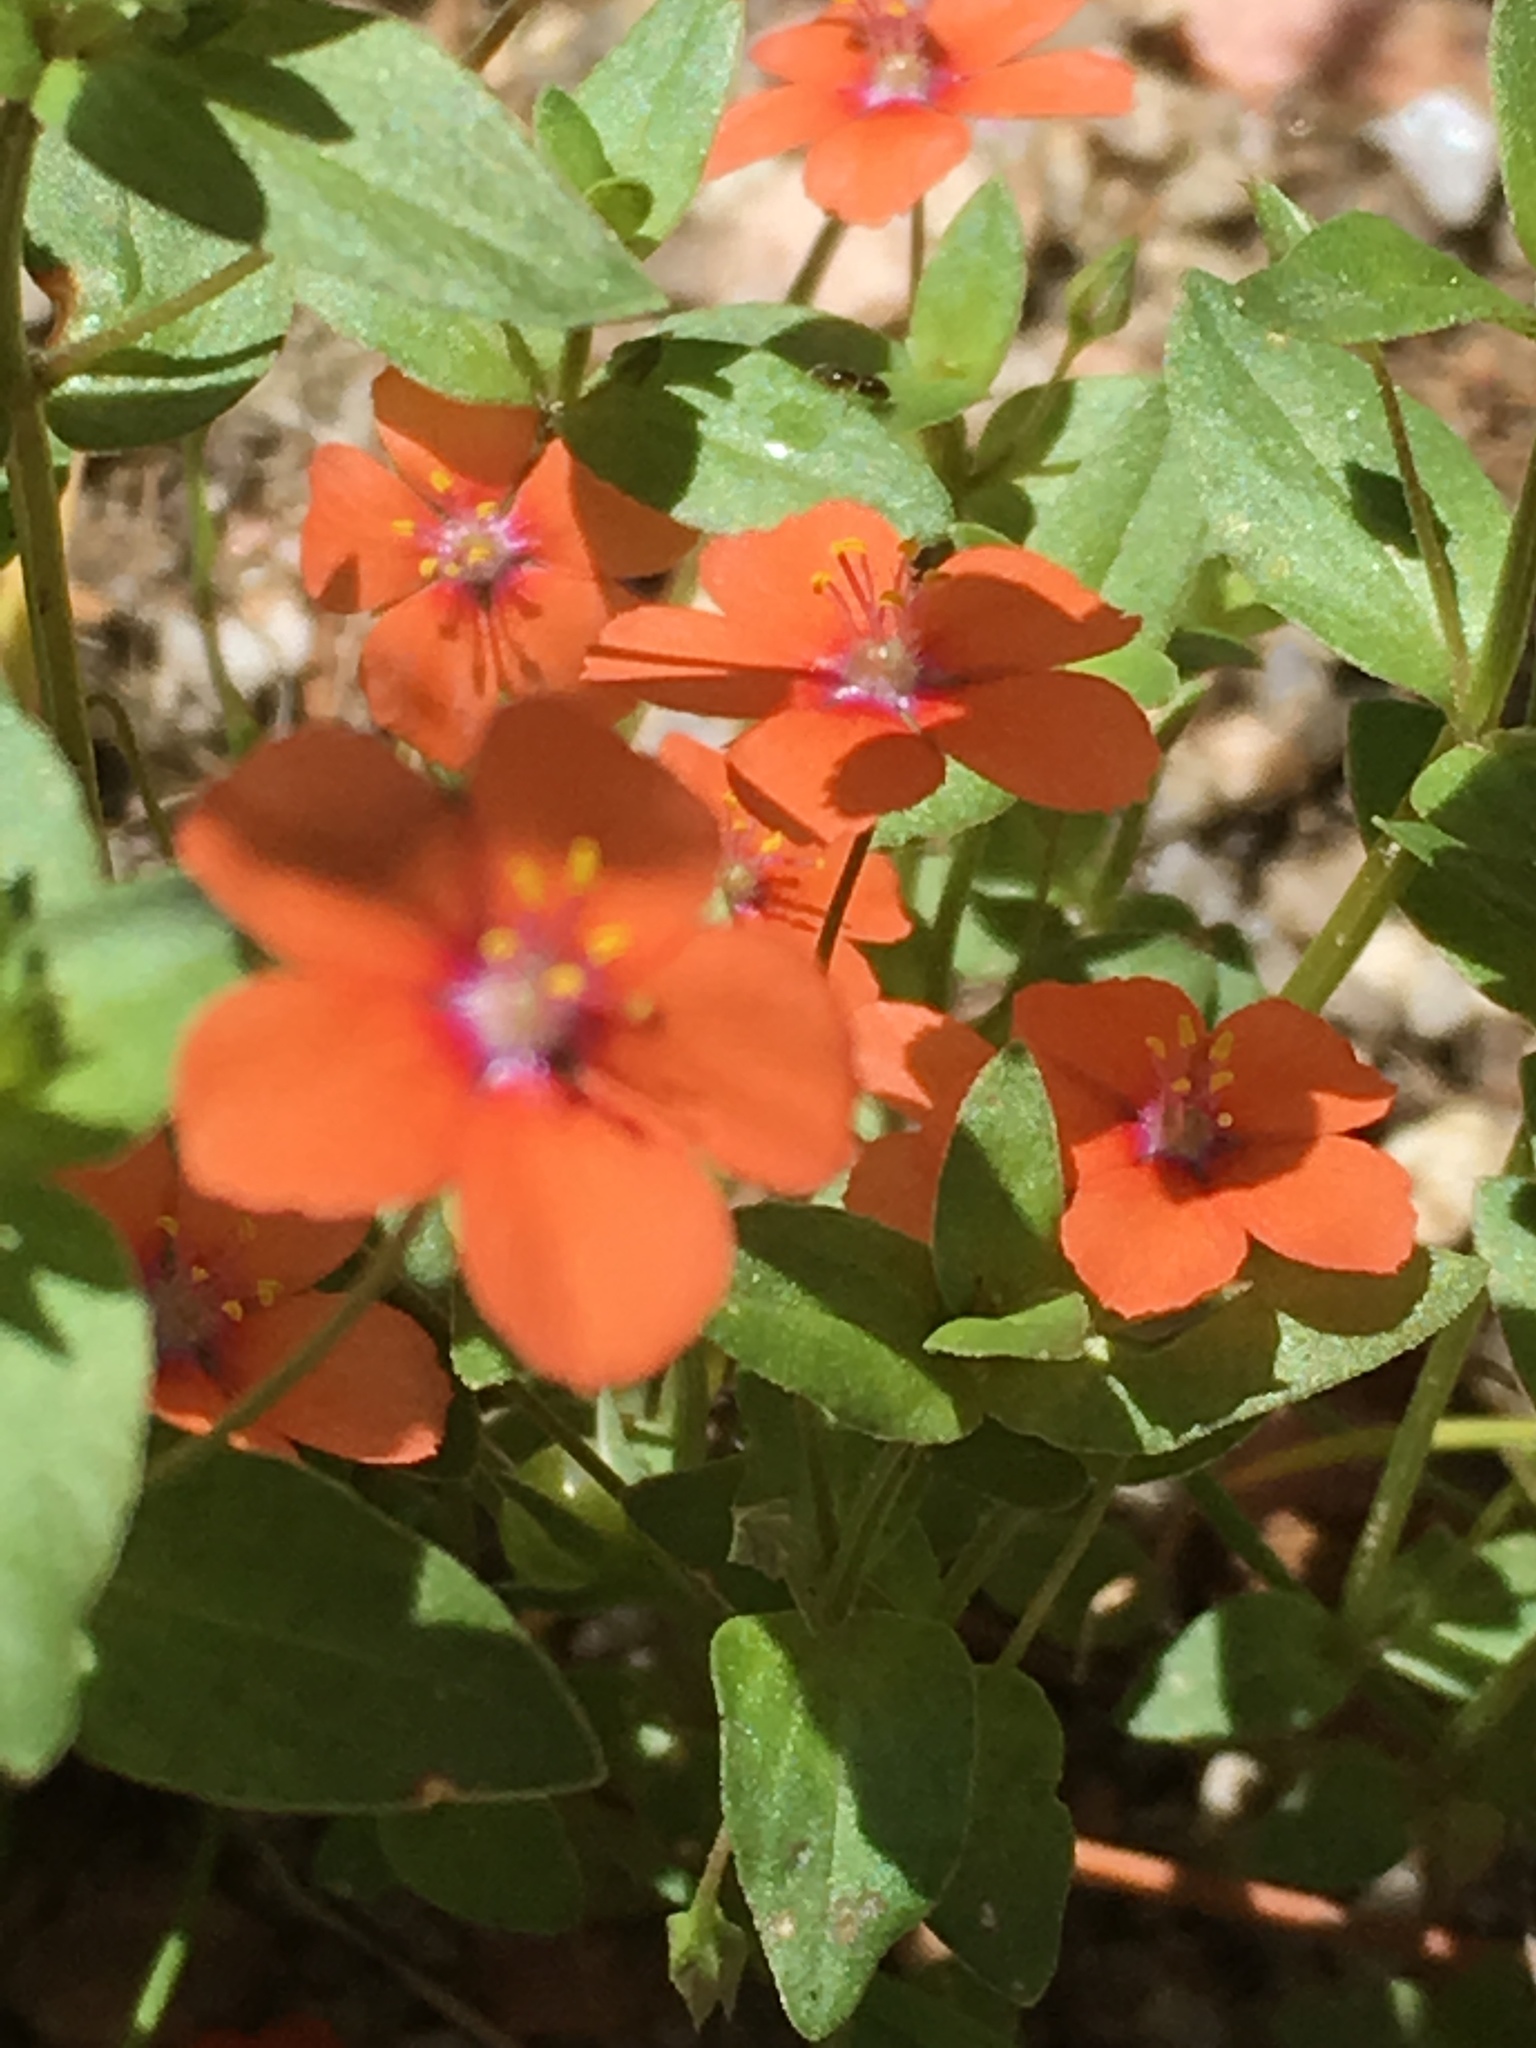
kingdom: Plantae
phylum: Tracheophyta
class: Magnoliopsida
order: Ericales
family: Primulaceae
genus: Lysimachia
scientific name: Lysimachia arvensis
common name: Scarlet pimpernel
